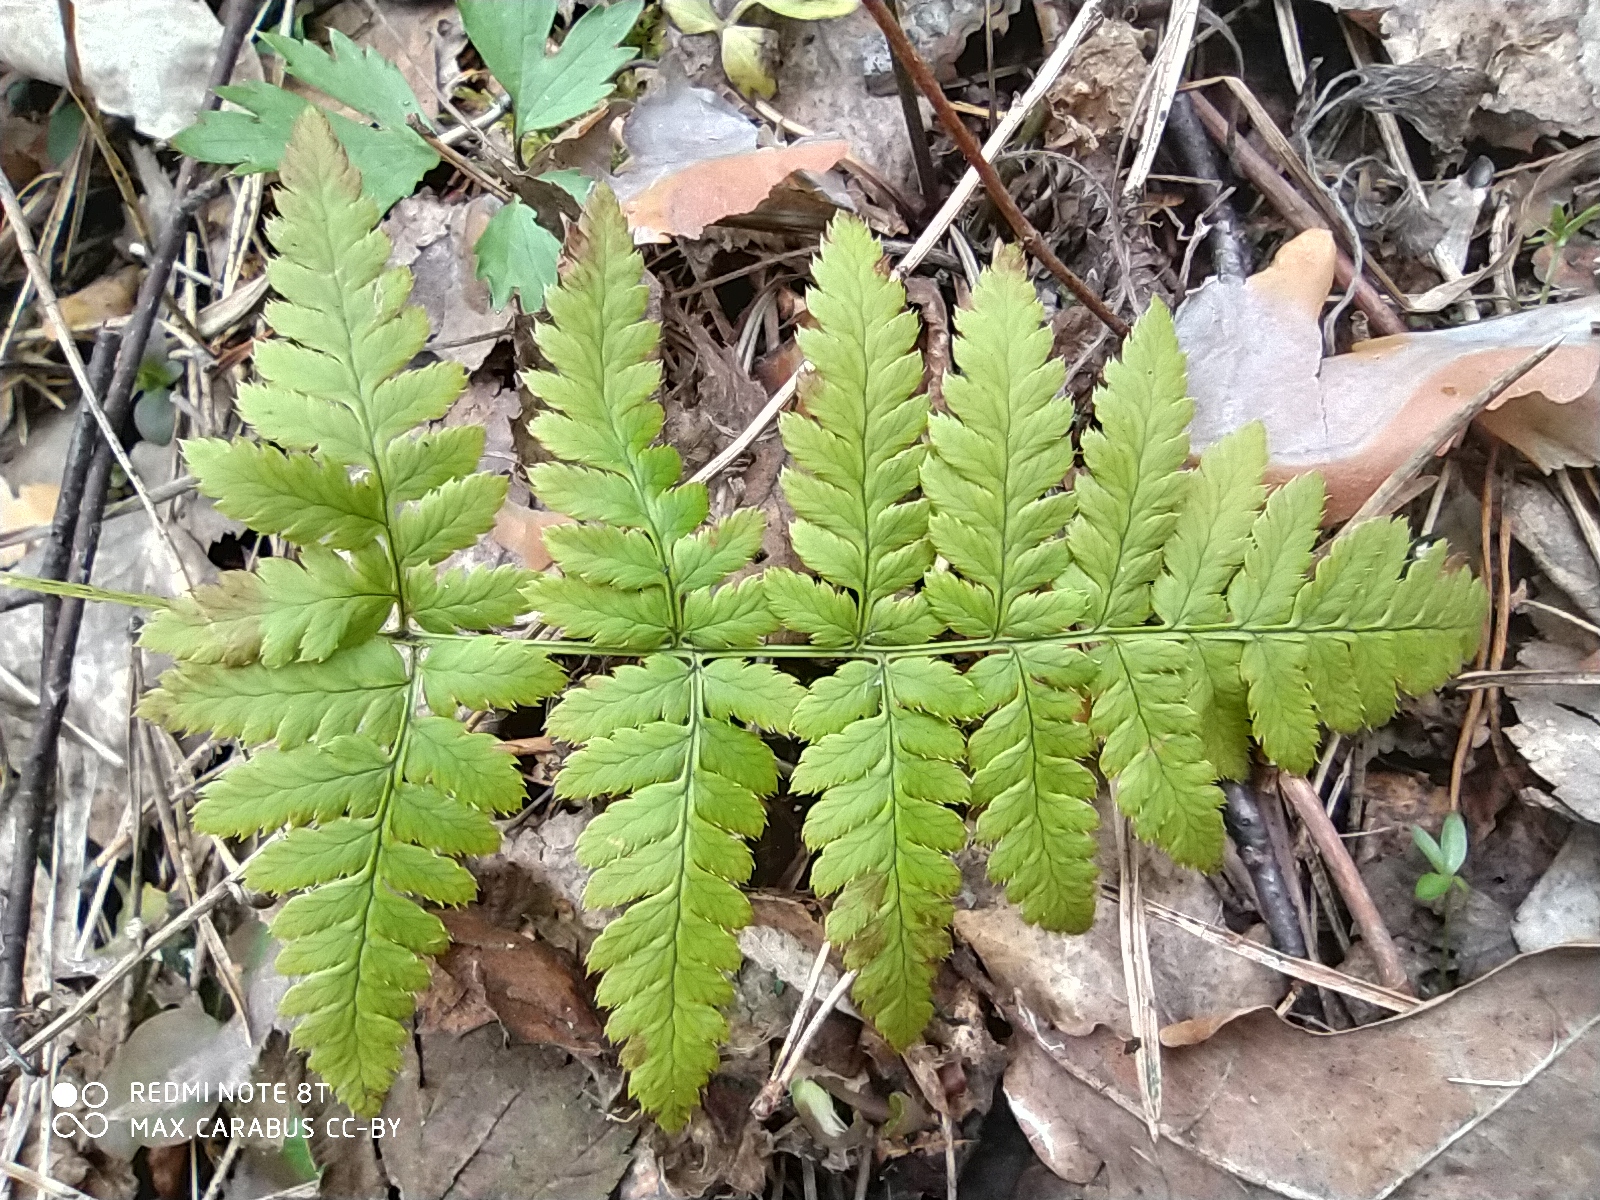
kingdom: Plantae
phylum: Tracheophyta
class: Polypodiopsida
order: Polypodiales
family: Dryopteridaceae
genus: Dryopteris
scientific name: Dryopteris carthusiana
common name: Narrow buckler-fern
